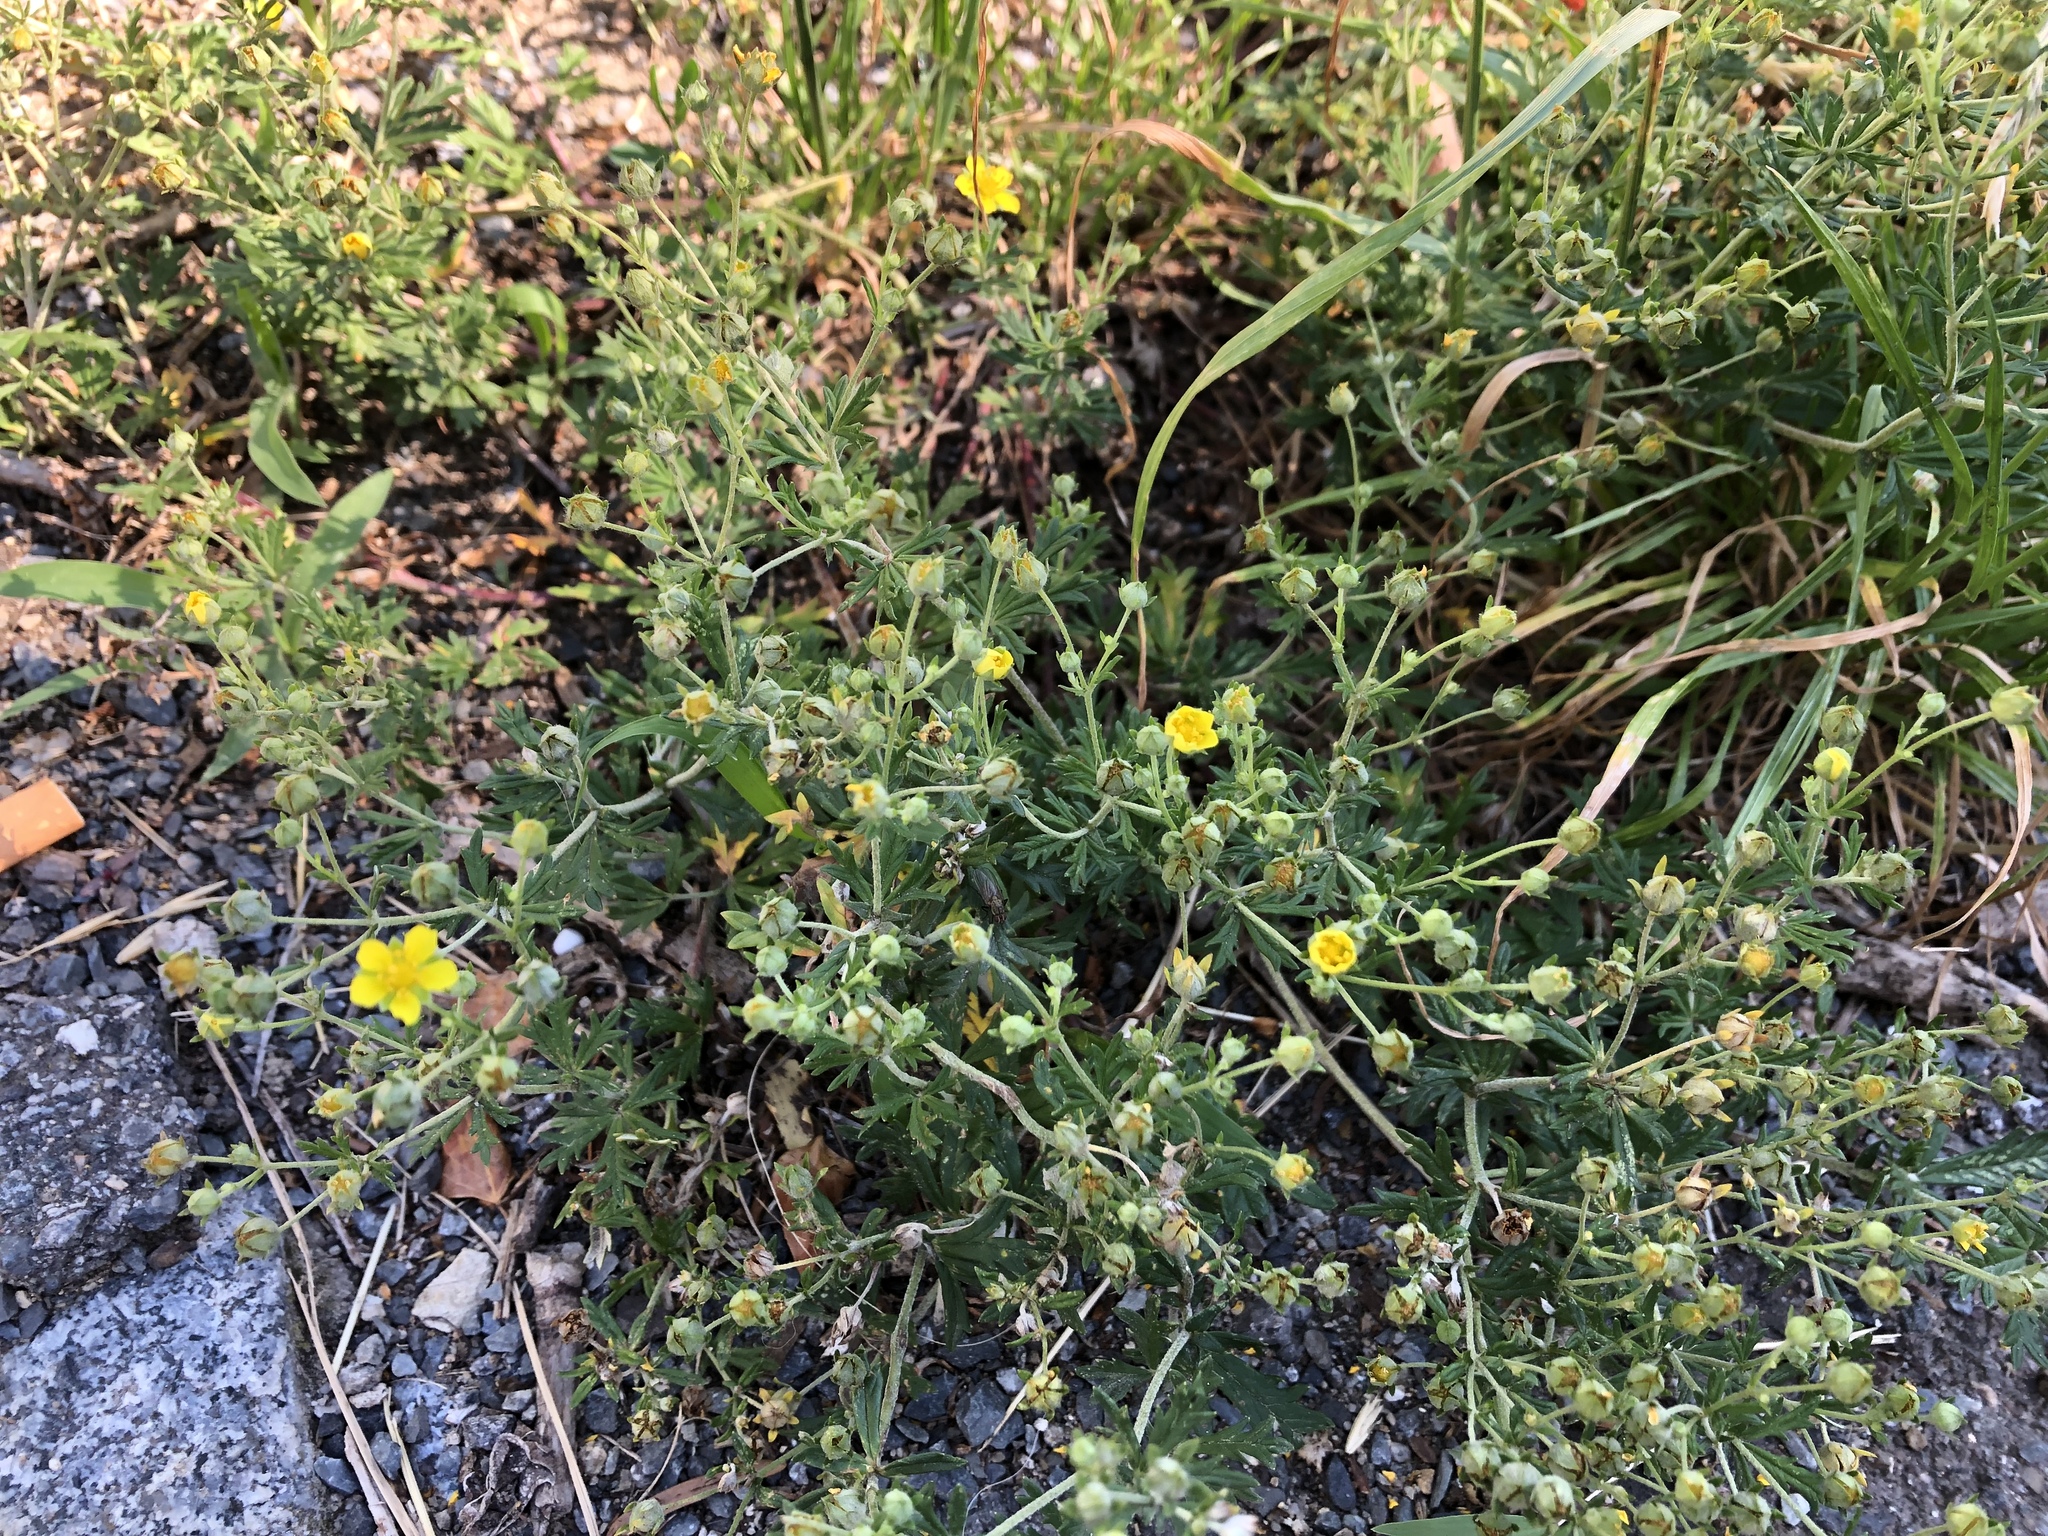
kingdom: Plantae
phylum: Tracheophyta
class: Magnoliopsida
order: Rosales
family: Rosaceae
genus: Potentilla
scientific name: Potentilla argentea
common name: Hoary cinquefoil
